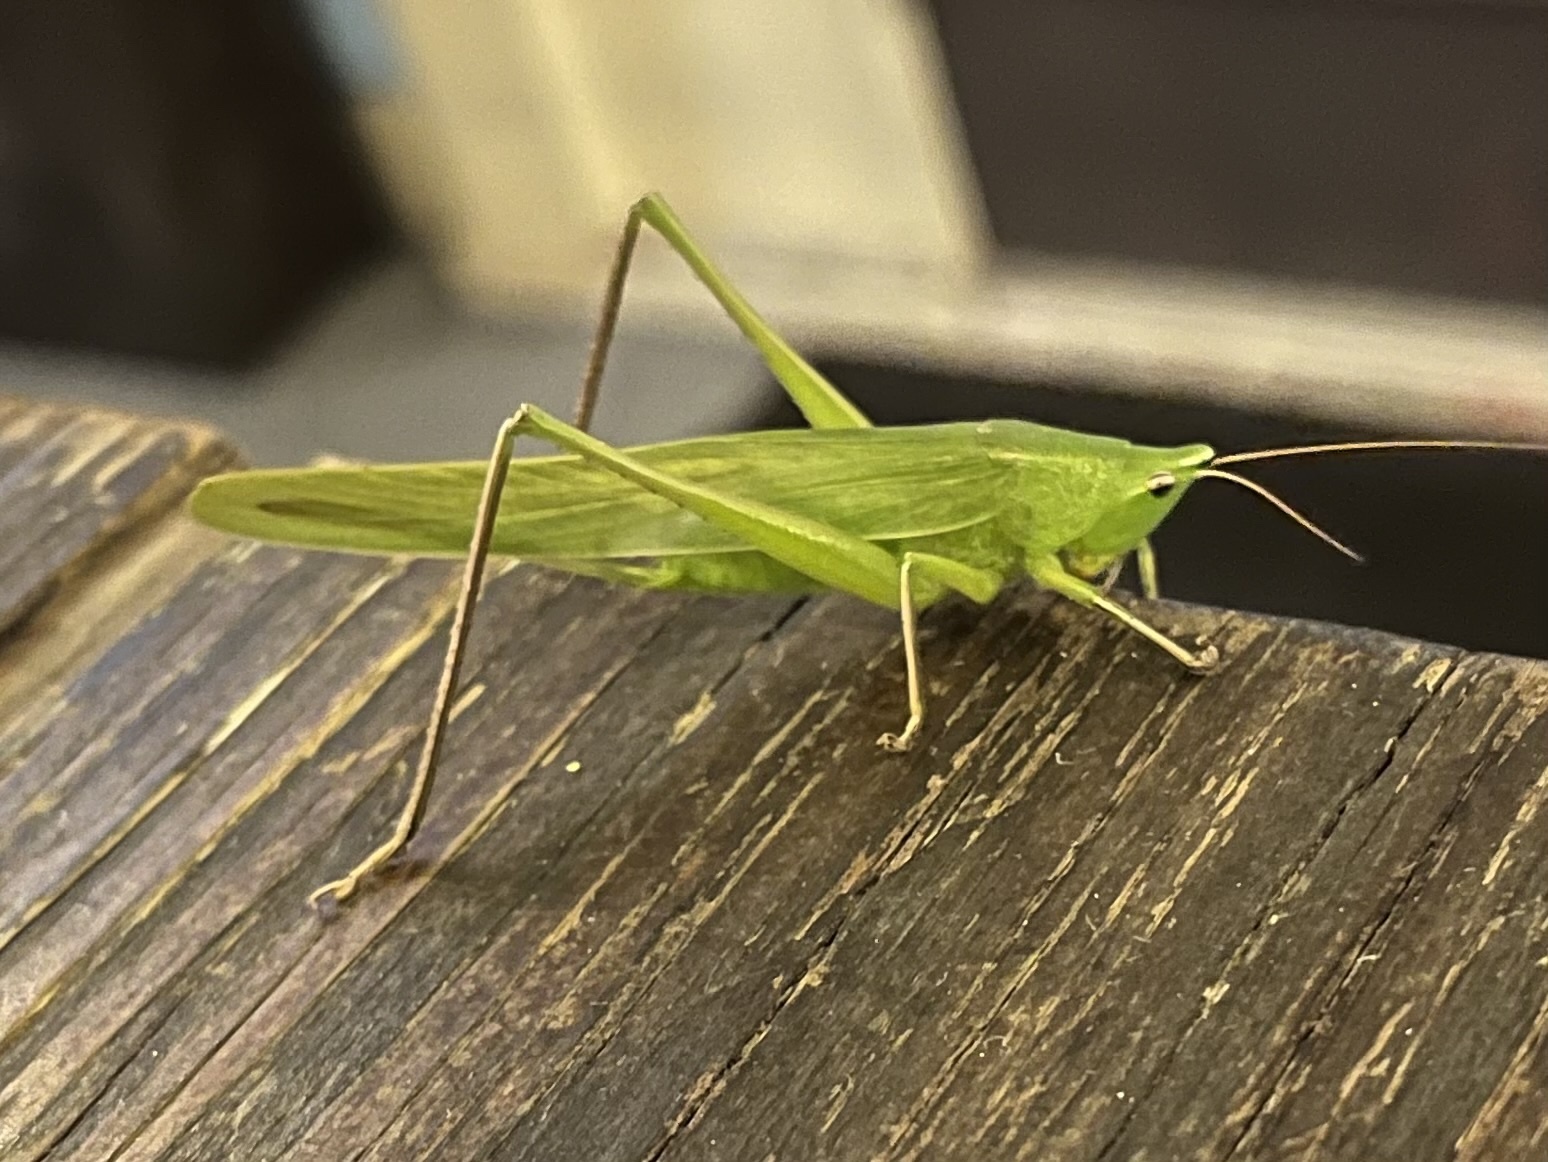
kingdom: Animalia
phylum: Arthropoda
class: Insecta
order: Orthoptera
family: Tettigoniidae
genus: Neoconocephalus
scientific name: Neoconocephalus triops
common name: Broad-tipped conehead
